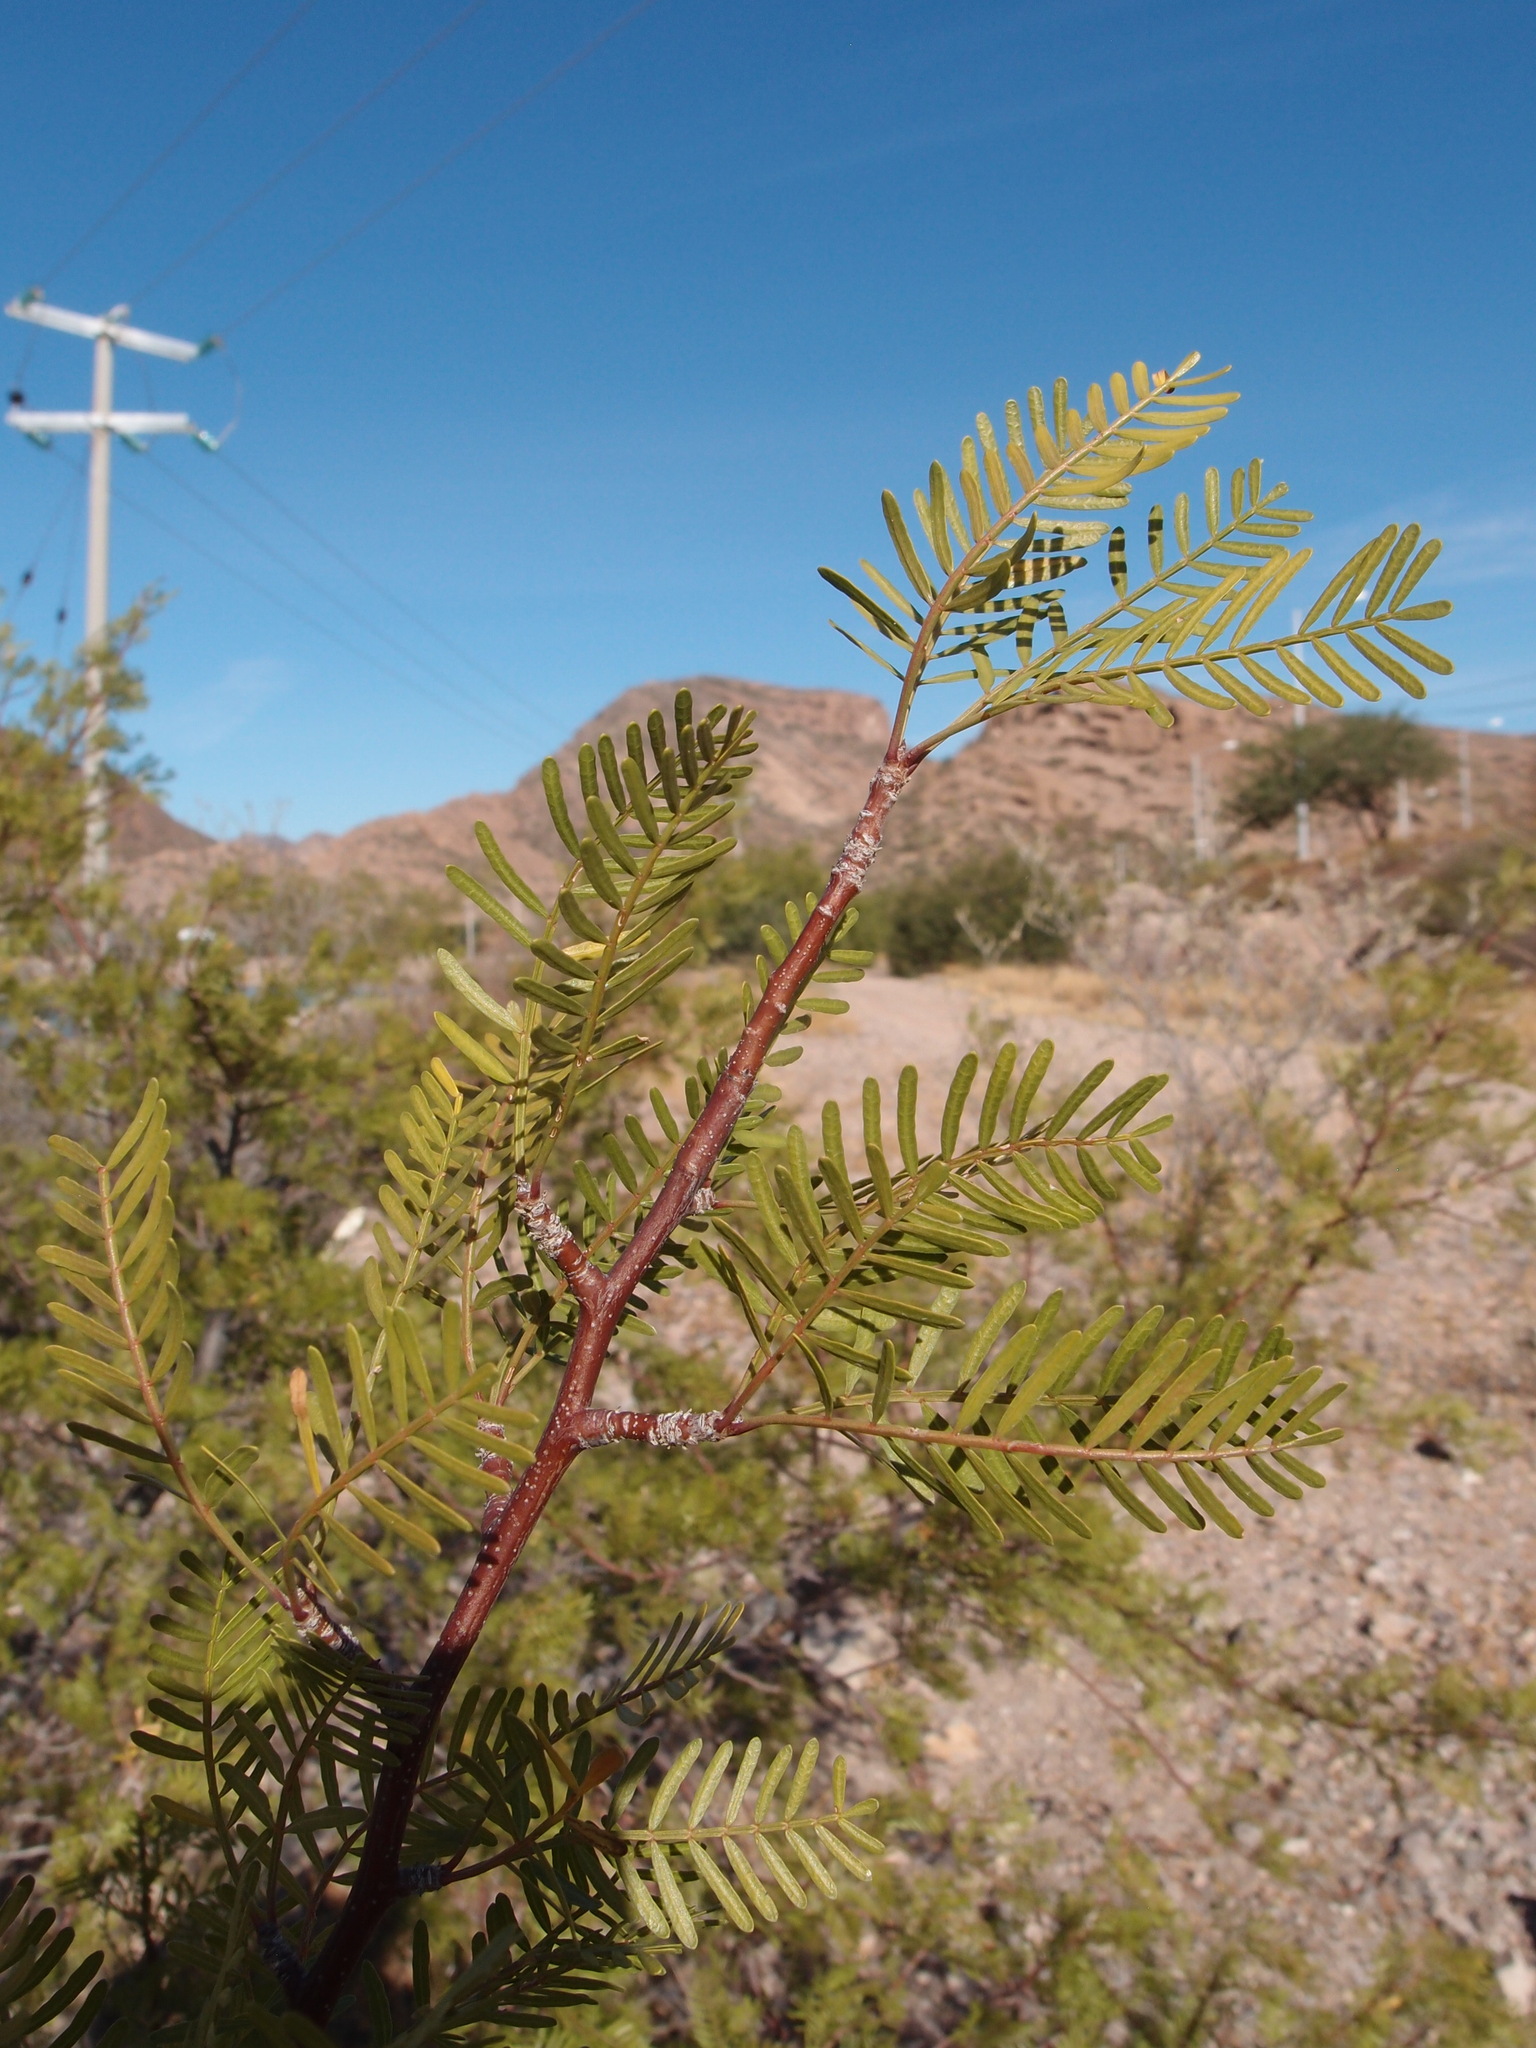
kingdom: Plantae
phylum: Tracheophyta
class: Magnoliopsida
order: Sapindales
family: Burseraceae
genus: Bursera
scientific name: Bursera microphylla
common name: Elephant tree
